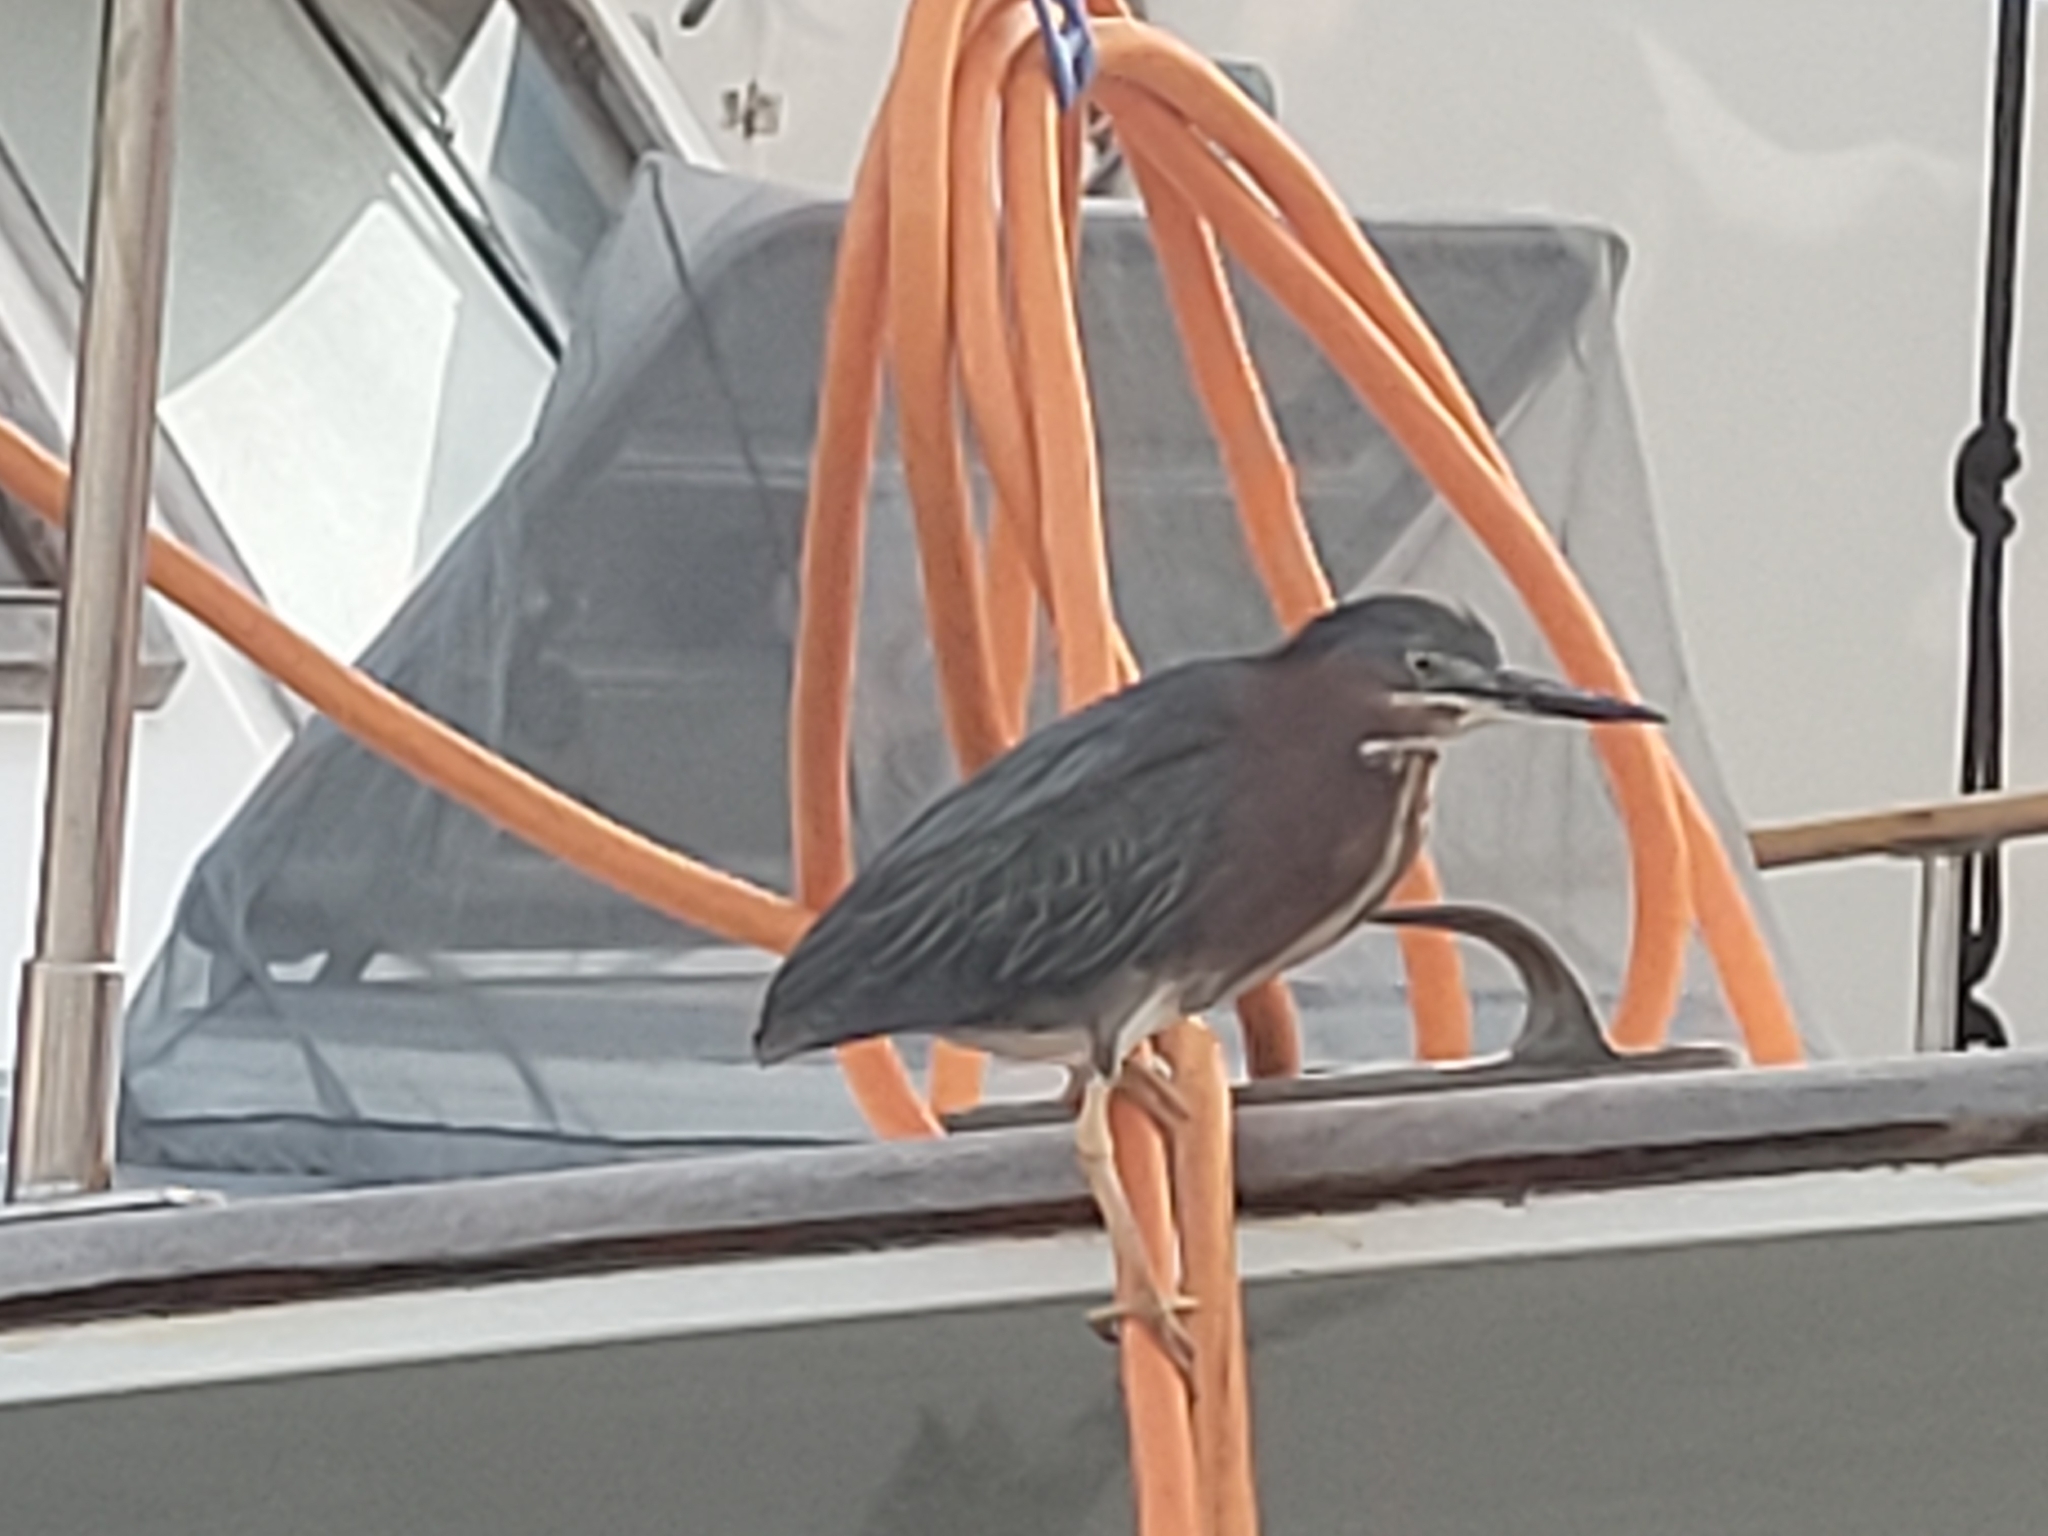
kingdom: Animalia
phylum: Chordata
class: Aves
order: Pelecaniformes
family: Ardeidae
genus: Butorides
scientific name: Butorides virescens
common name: Green heron
